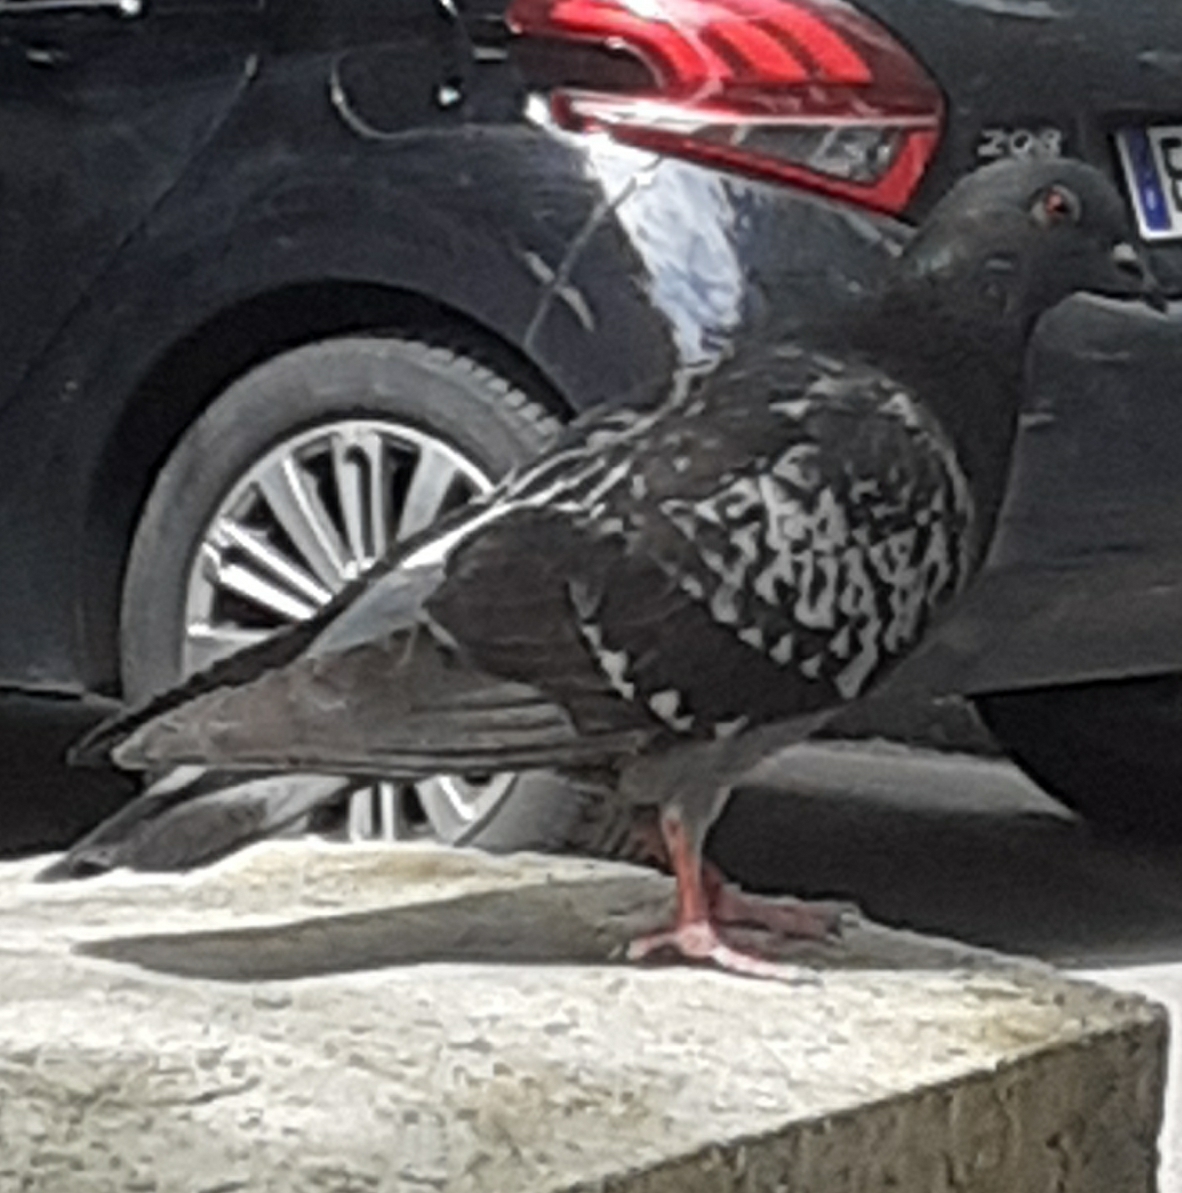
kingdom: Animalia
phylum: Chordata
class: Aves
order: Columbiformes
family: Columbidae
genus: Columba
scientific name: Columba livia
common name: Rock pigeon
